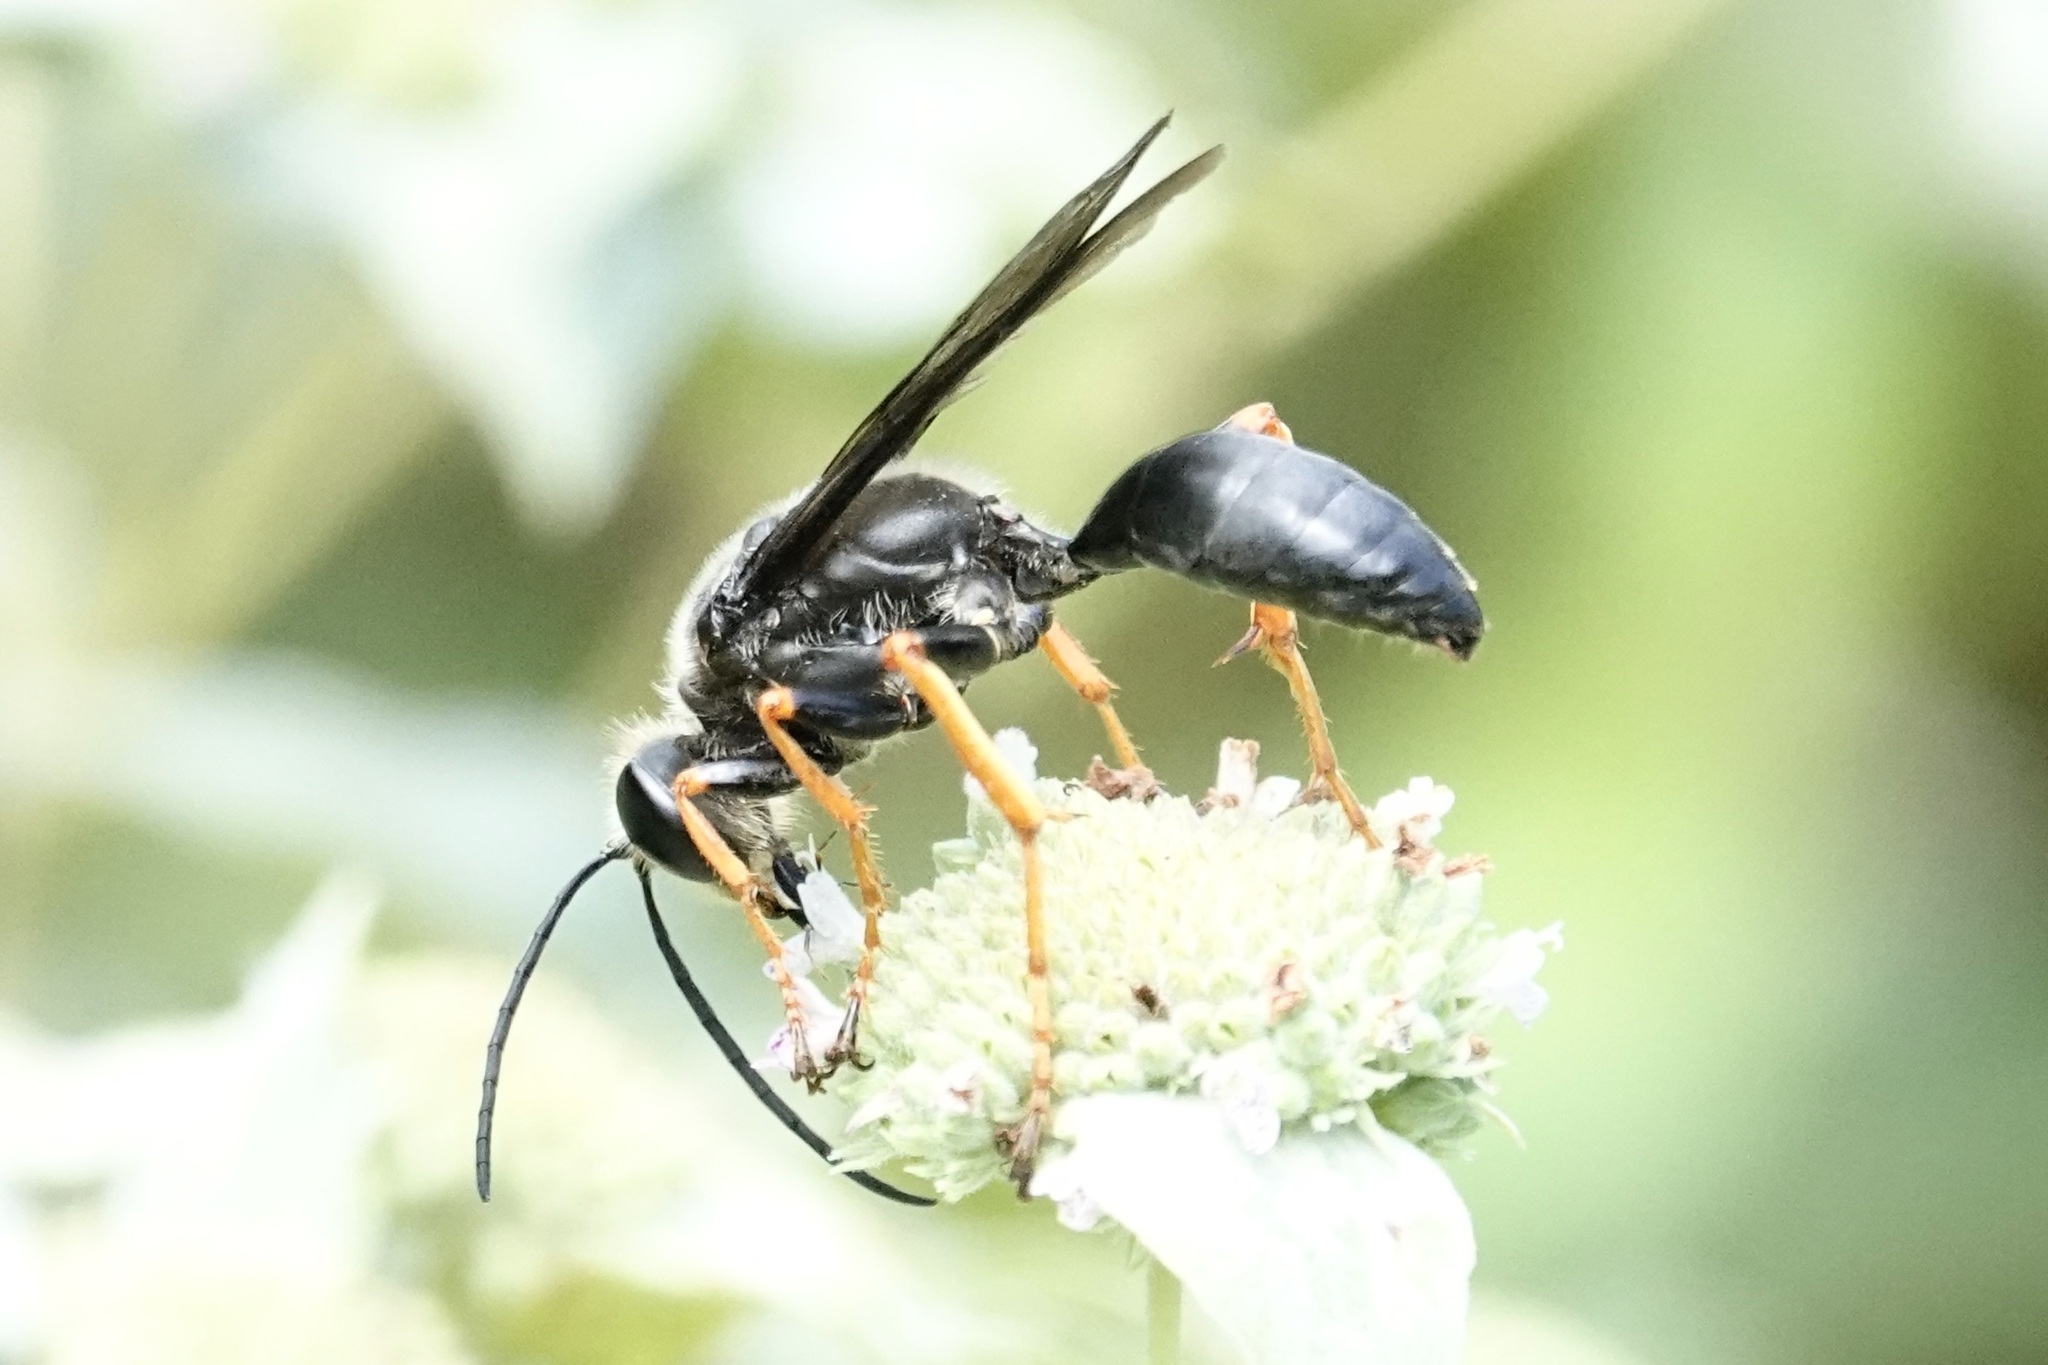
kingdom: Animalia
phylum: Arthropoda
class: Insecta
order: Hymenoptera
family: Sphecidae
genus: Sphex
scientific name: Sphex nudus
